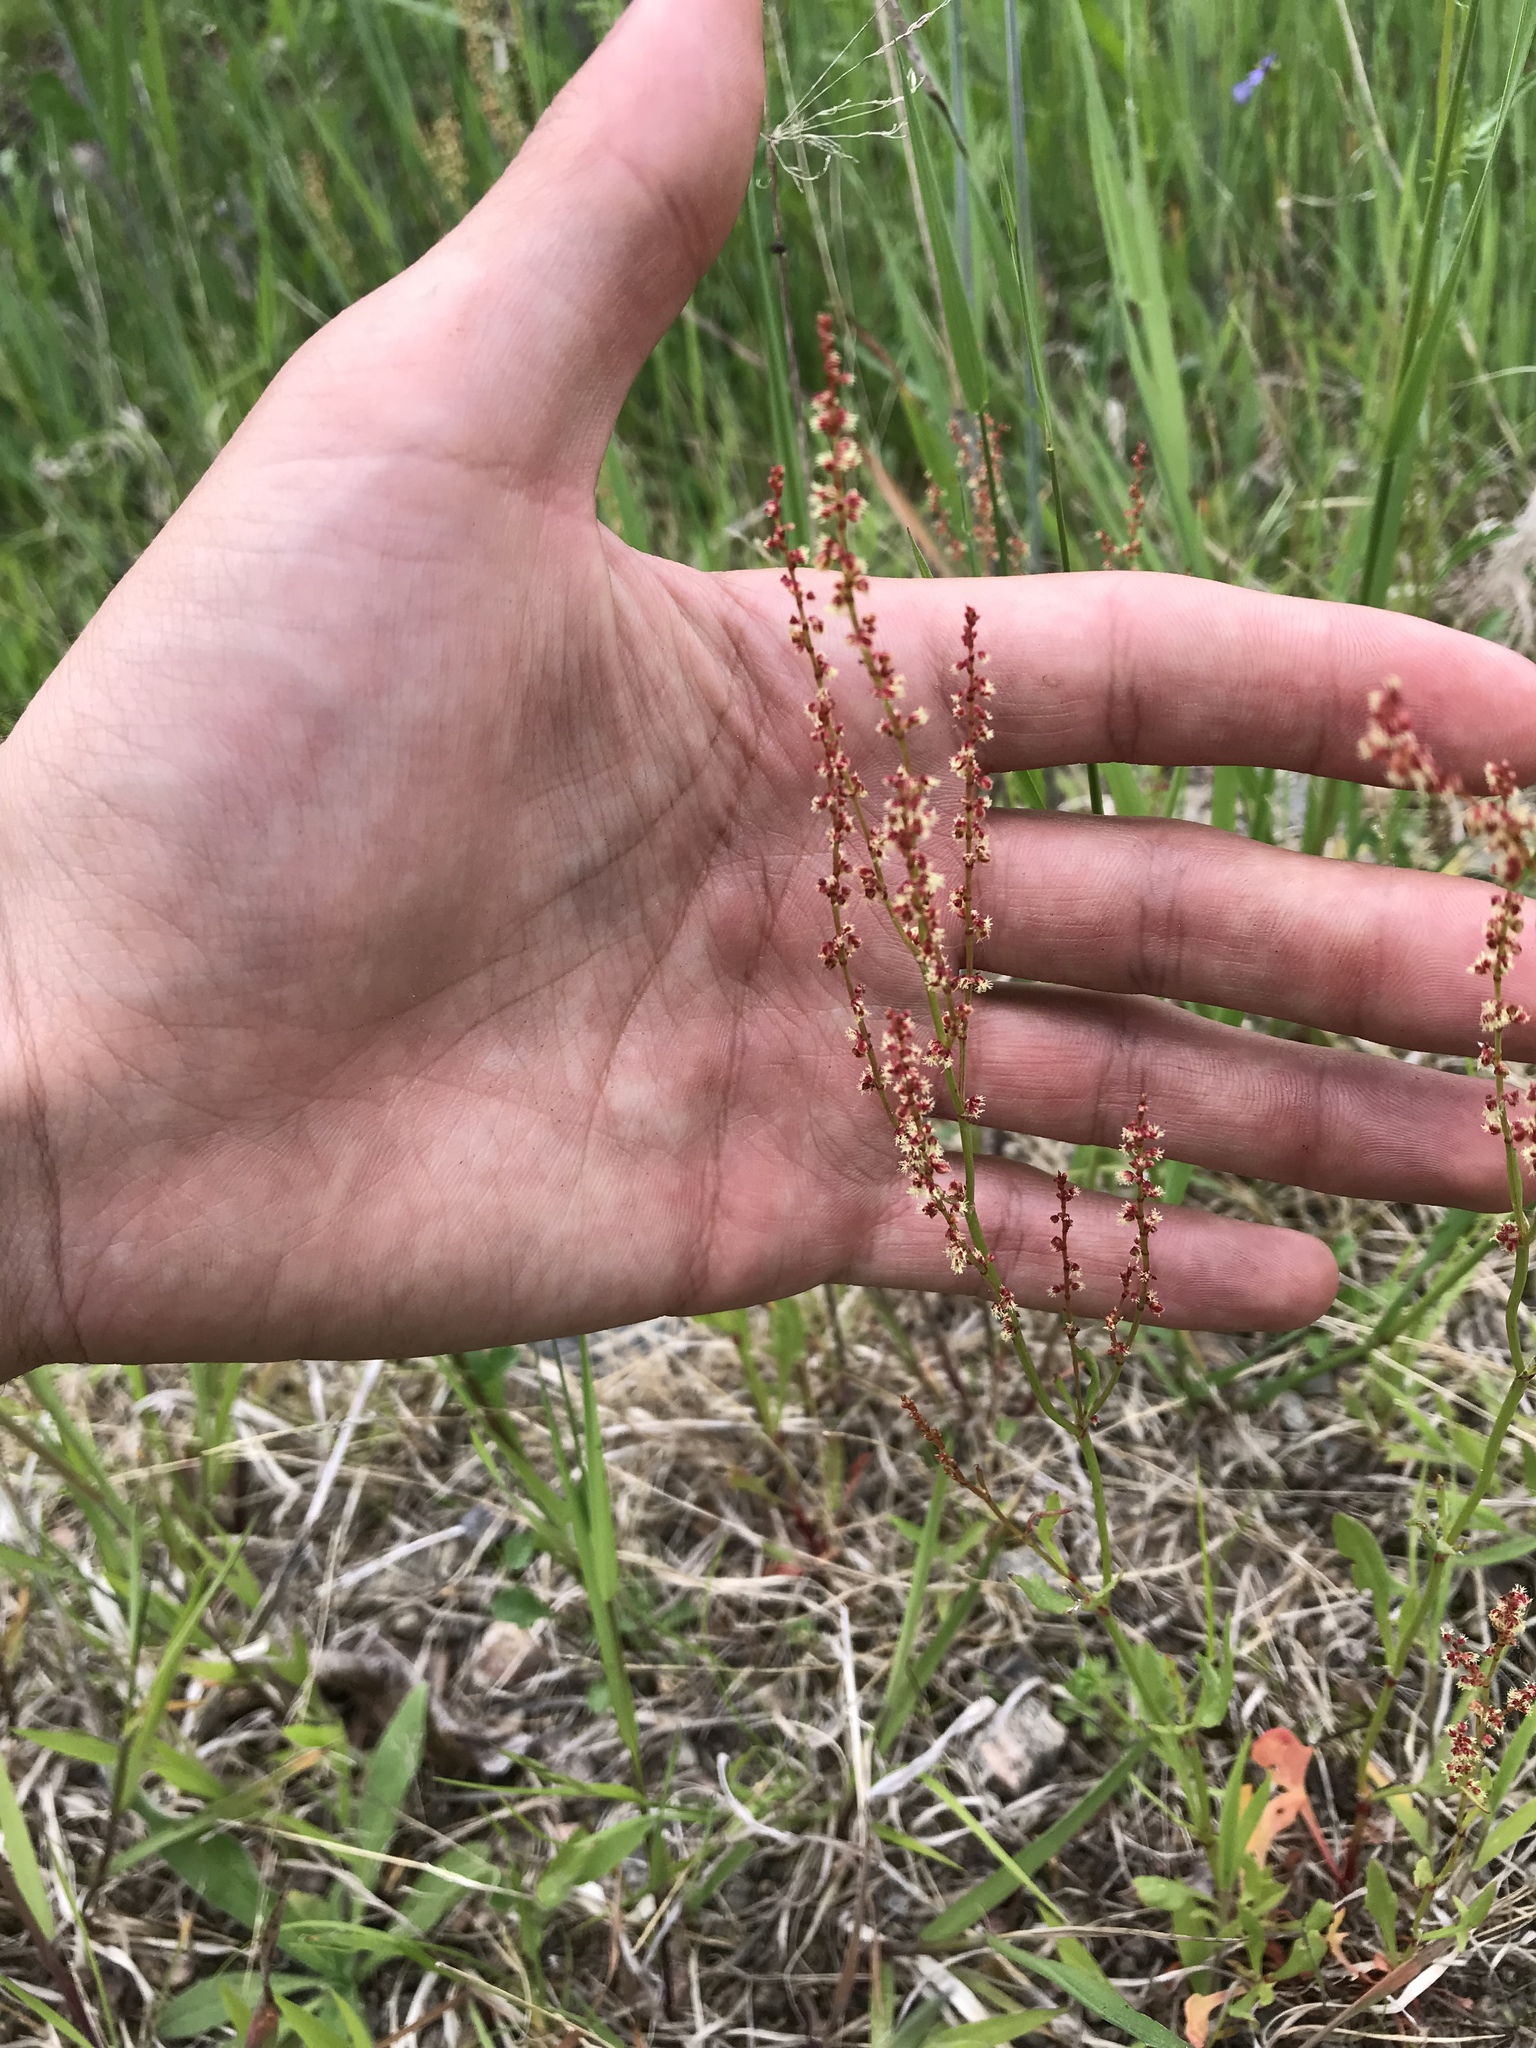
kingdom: Plantae
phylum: Tracheophyta
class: Magnoliopsida
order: Caryophyllales
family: Polygonaceae
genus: Rumex
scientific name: Rumex acetosella
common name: Common sheep sorrel
